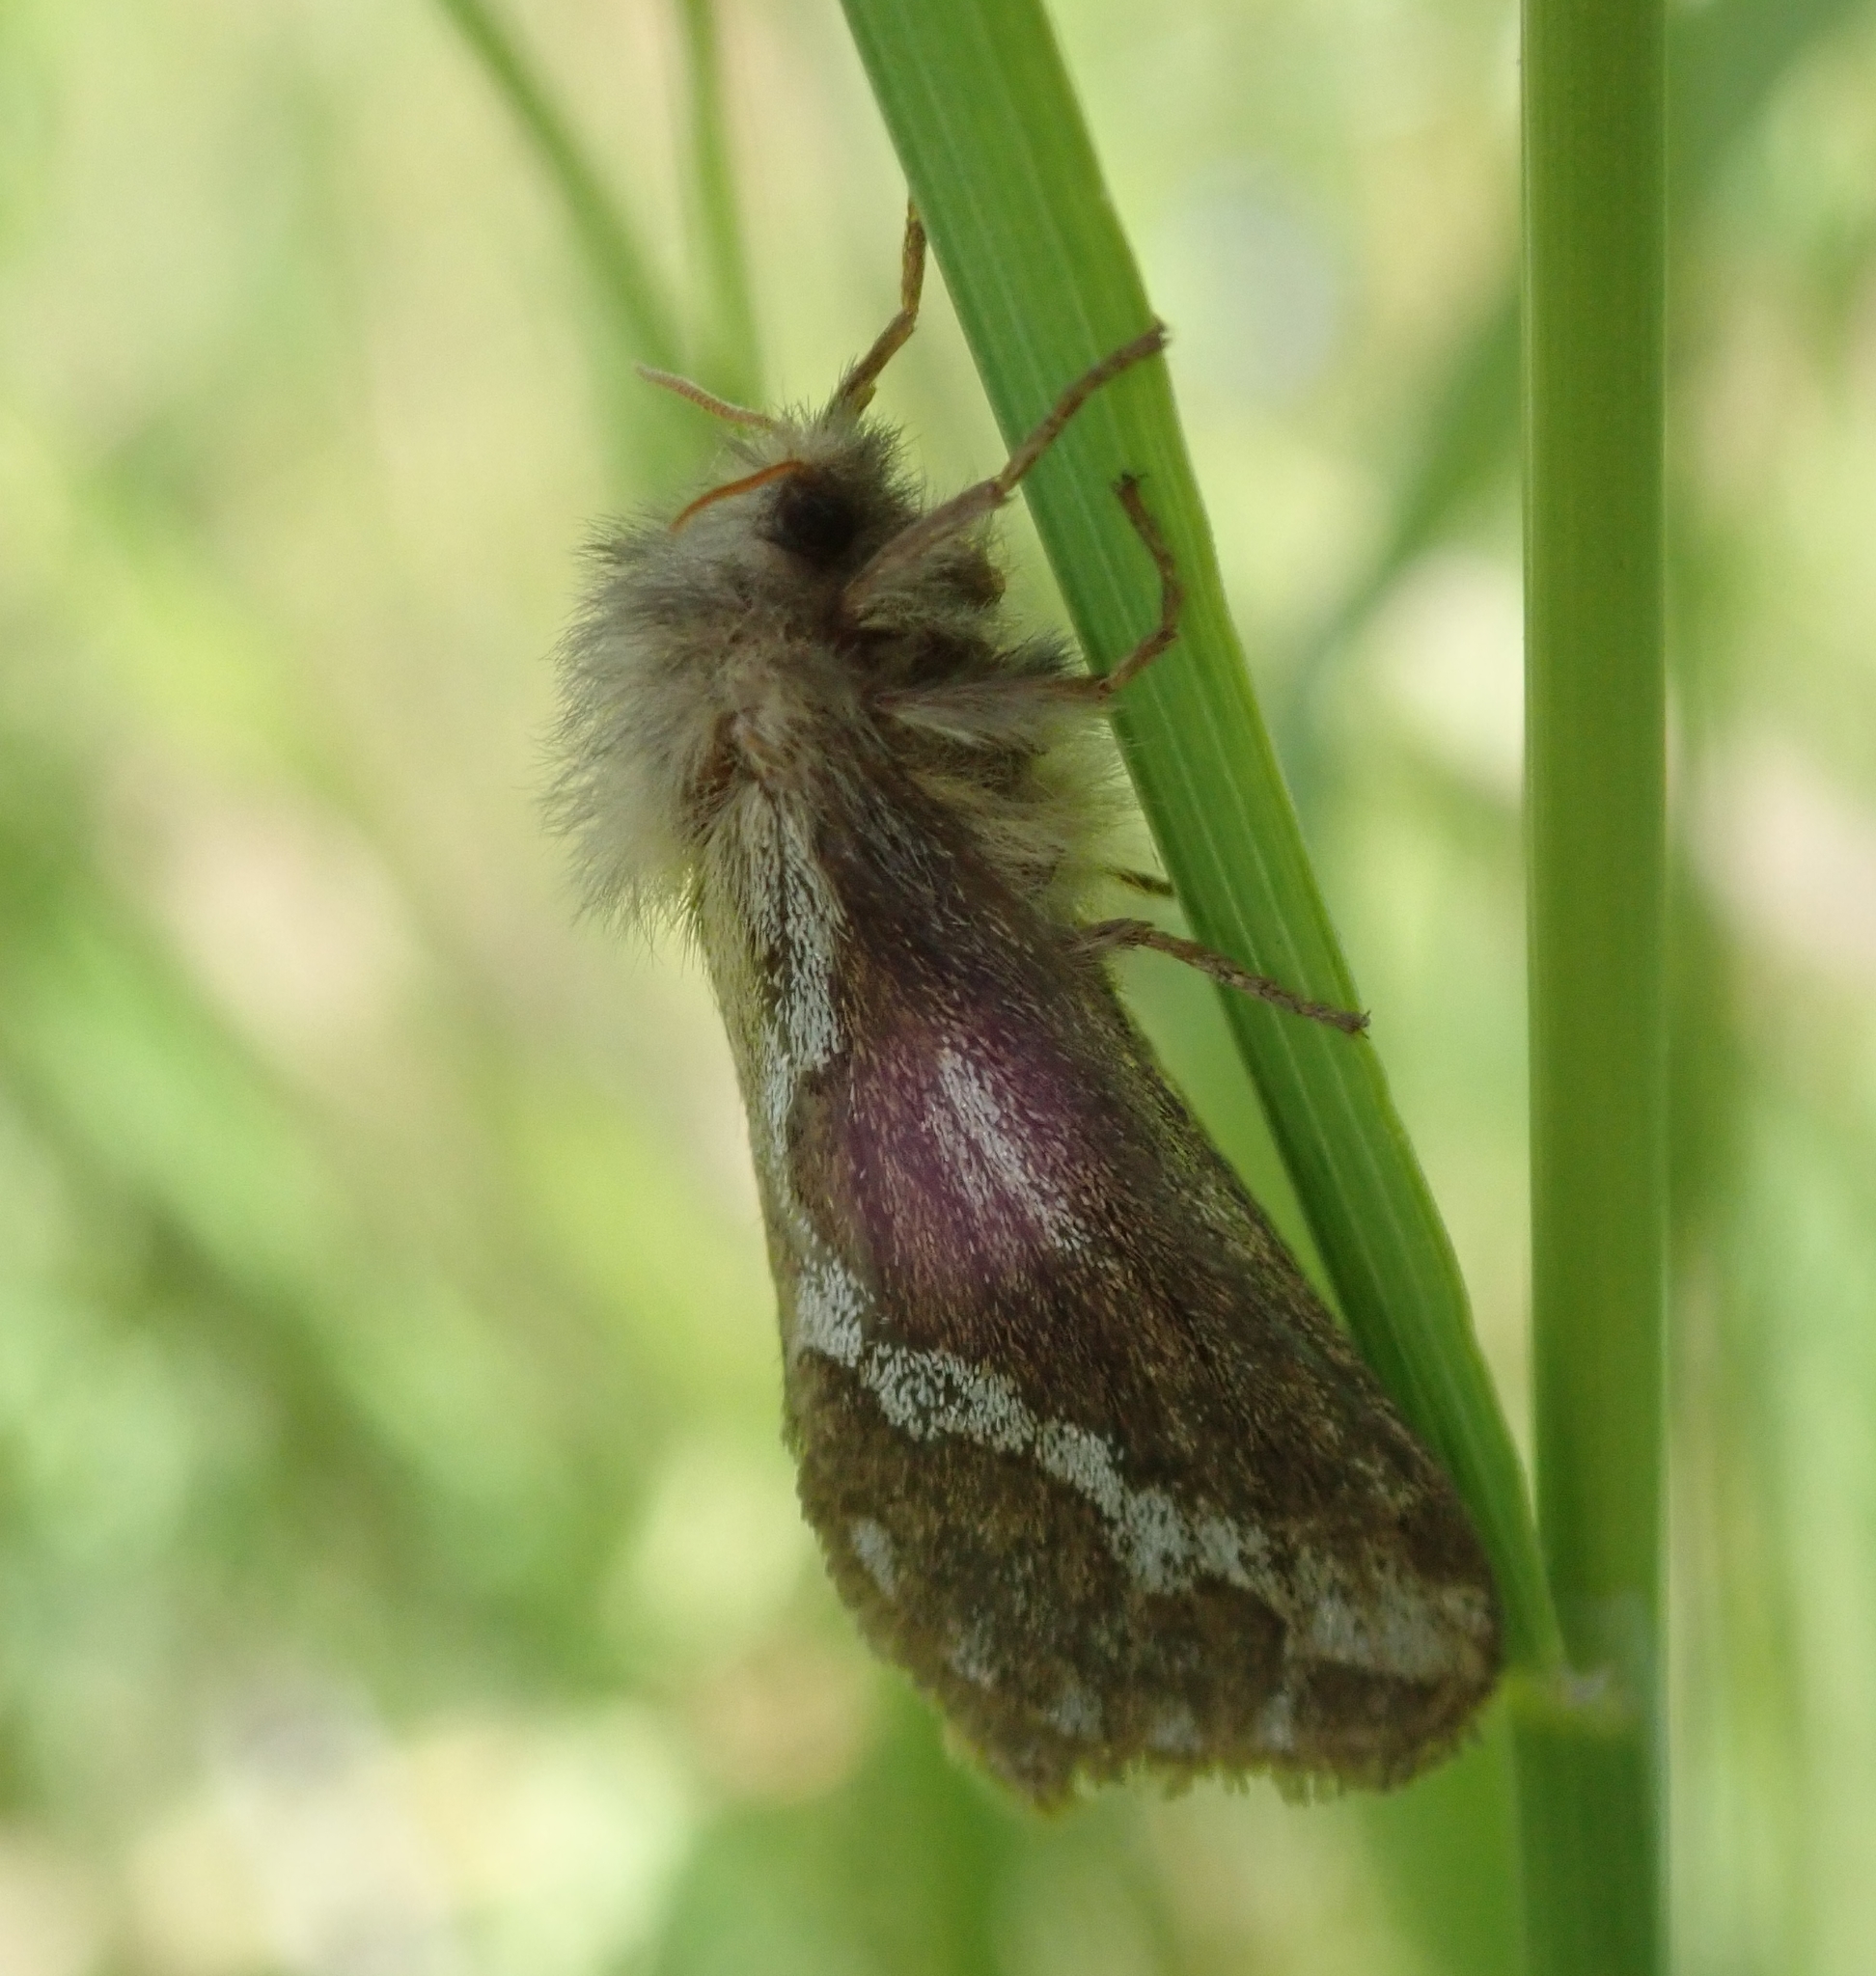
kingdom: Animalia
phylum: Arthropoda
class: Insecta
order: Lepidoptera
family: Hepialidae
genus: Korscheltellus
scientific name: Korscheltellus lupulina
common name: Common swift
